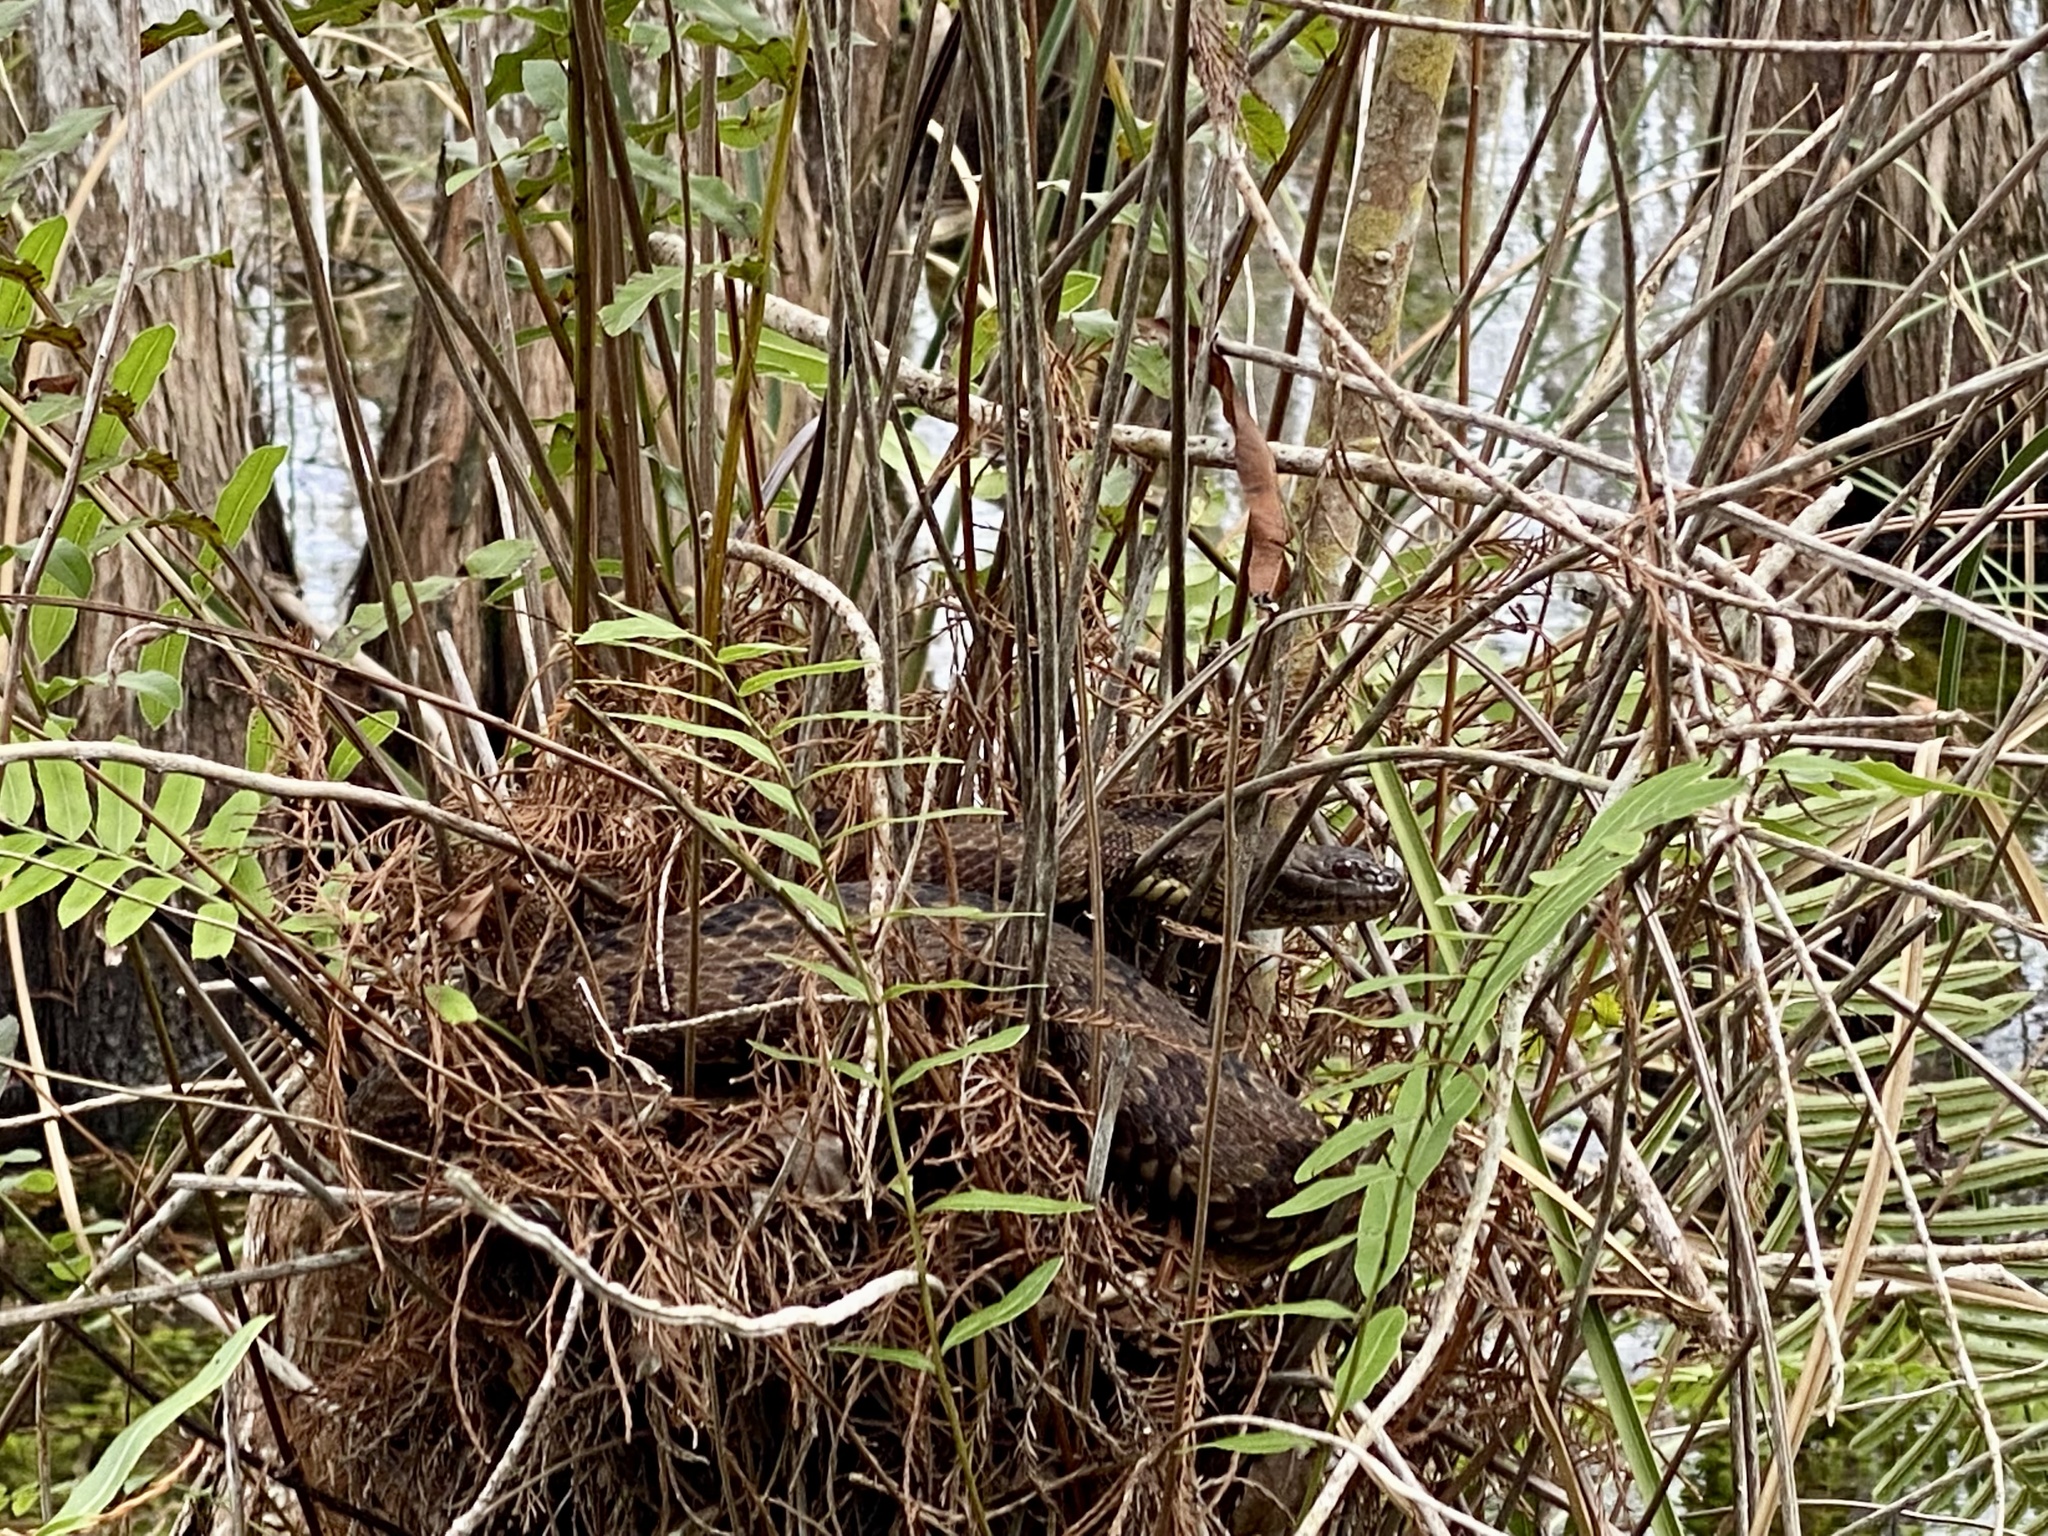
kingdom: Animalia
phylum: Chordata
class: Squamata
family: Colubridae
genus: Nerodia
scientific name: Nerodia taxispilota
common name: Brown water snake
